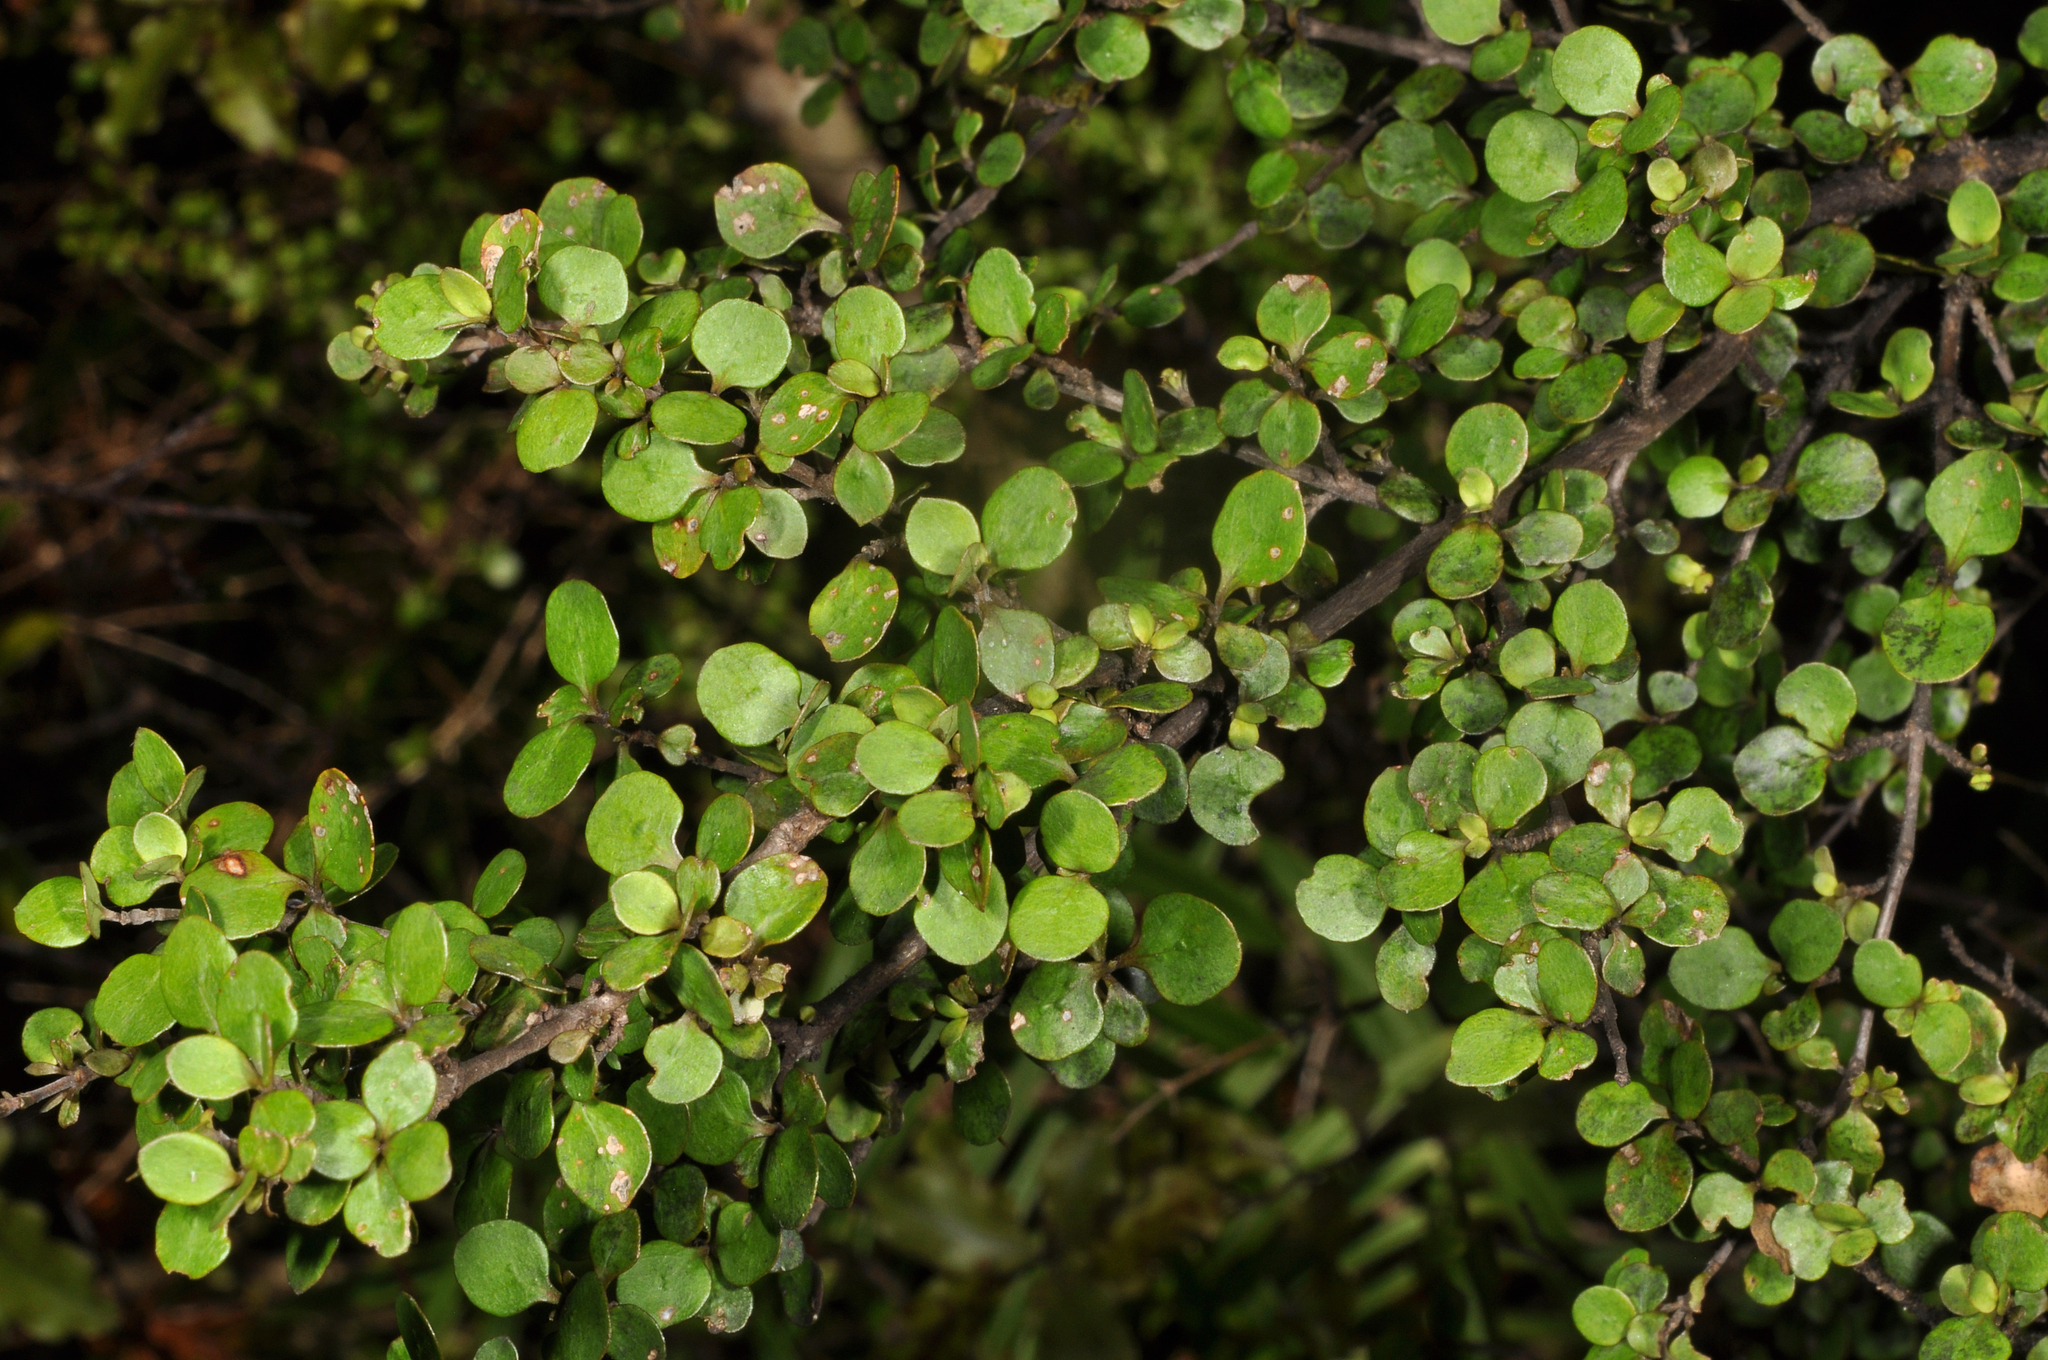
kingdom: Plantae
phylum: Tracheophyta
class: Magnoliopsida
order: Gentianales
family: Rubiaceae
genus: Coprosma
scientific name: Coprosma rhamnoides
